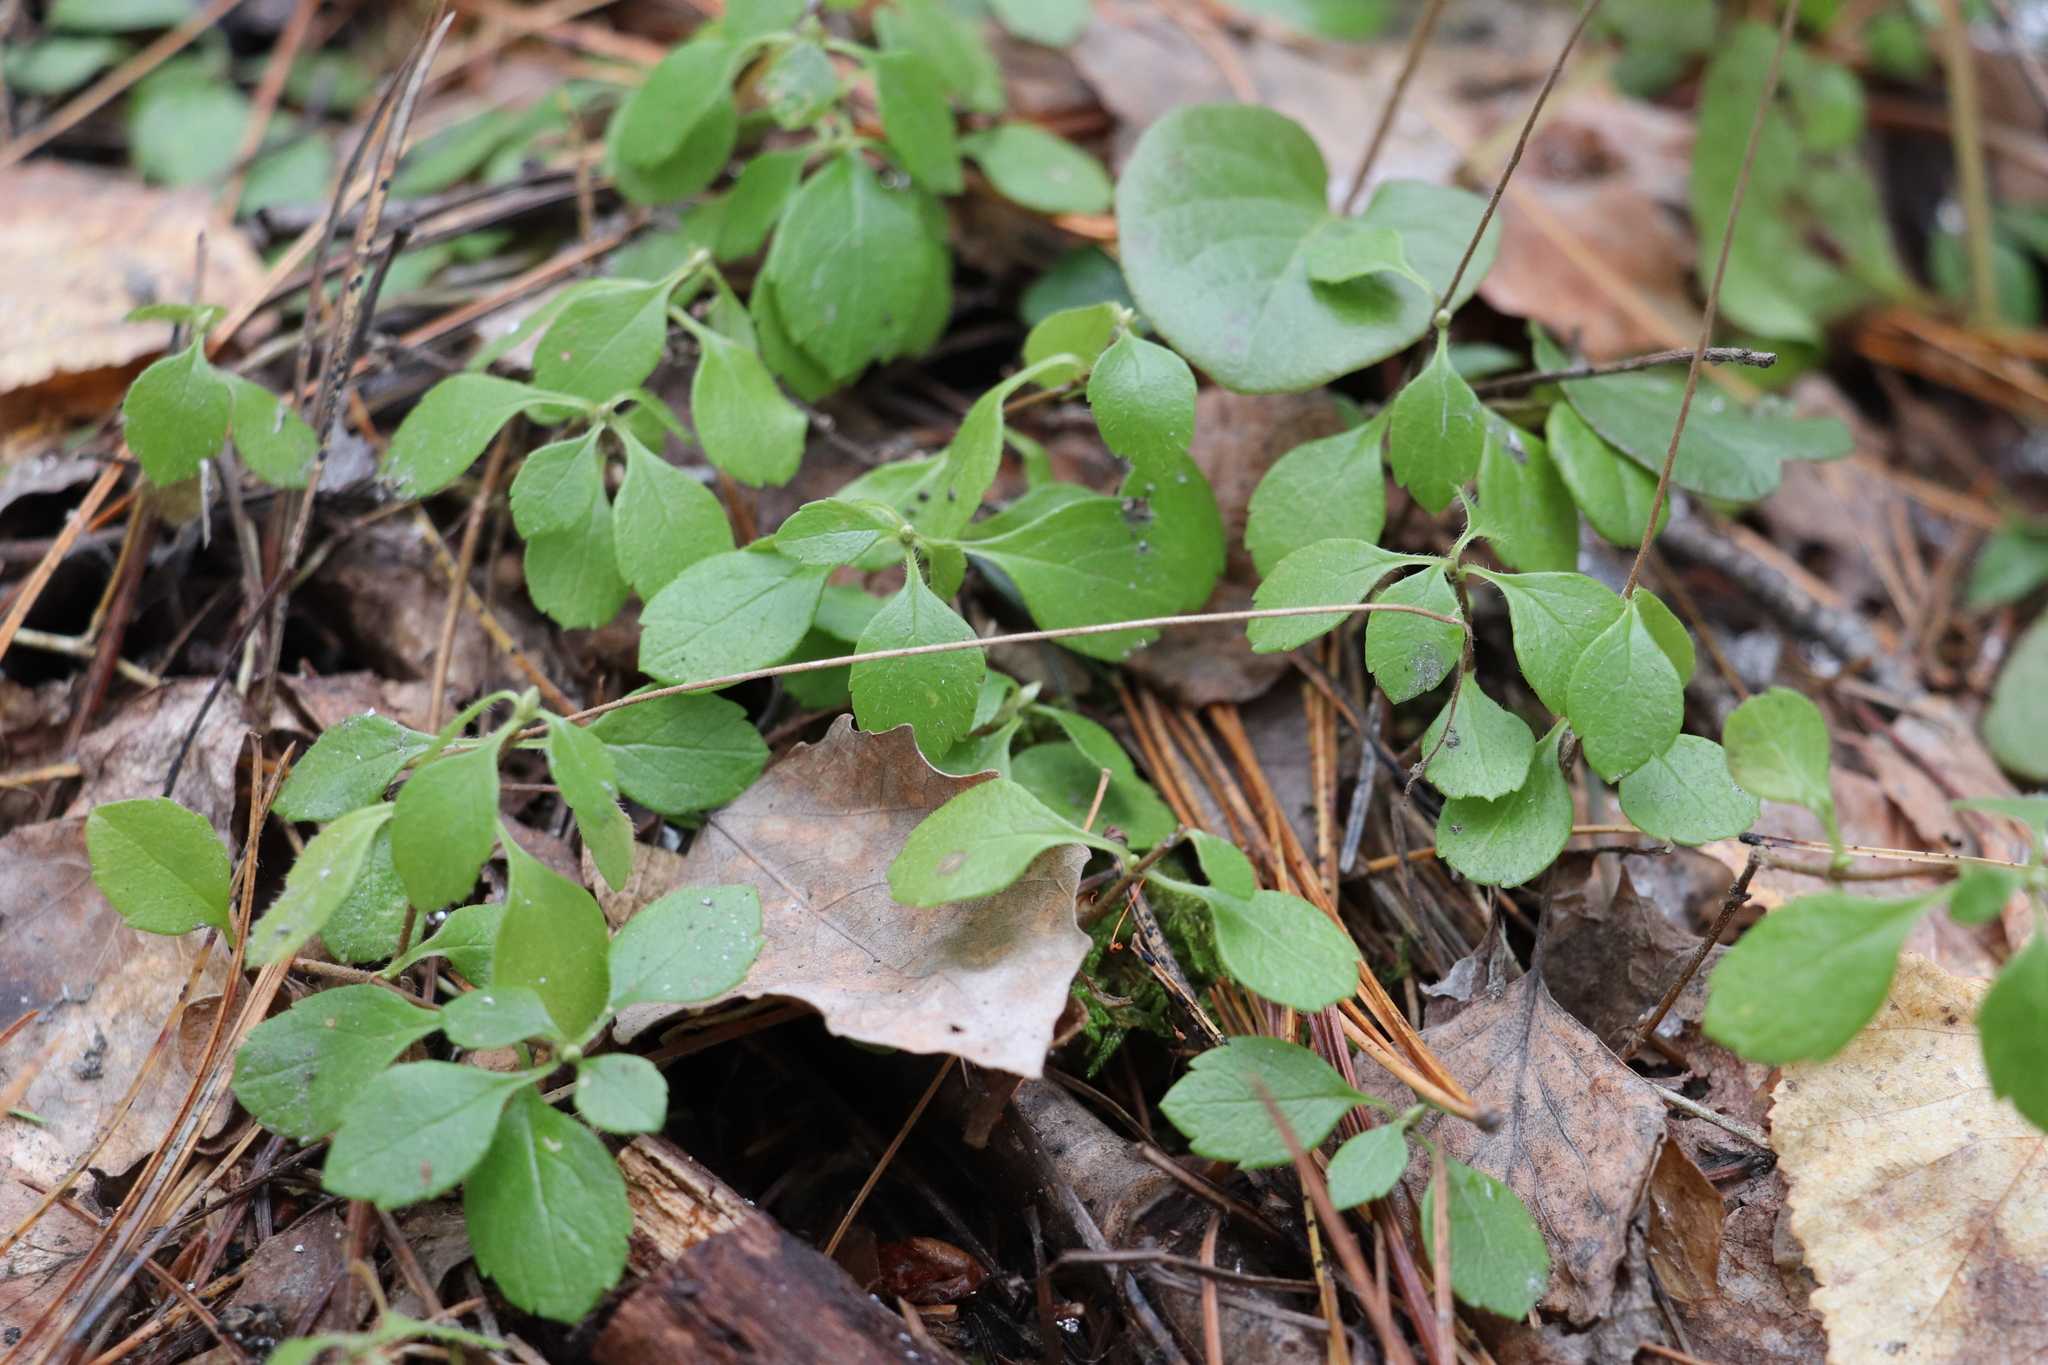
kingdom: Plantae
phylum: Tracheophyta
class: Magnoliopsida
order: Dipsacales
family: Caprifoliaceae
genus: Linnaea
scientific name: Linnaea borealis
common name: Twinflower
